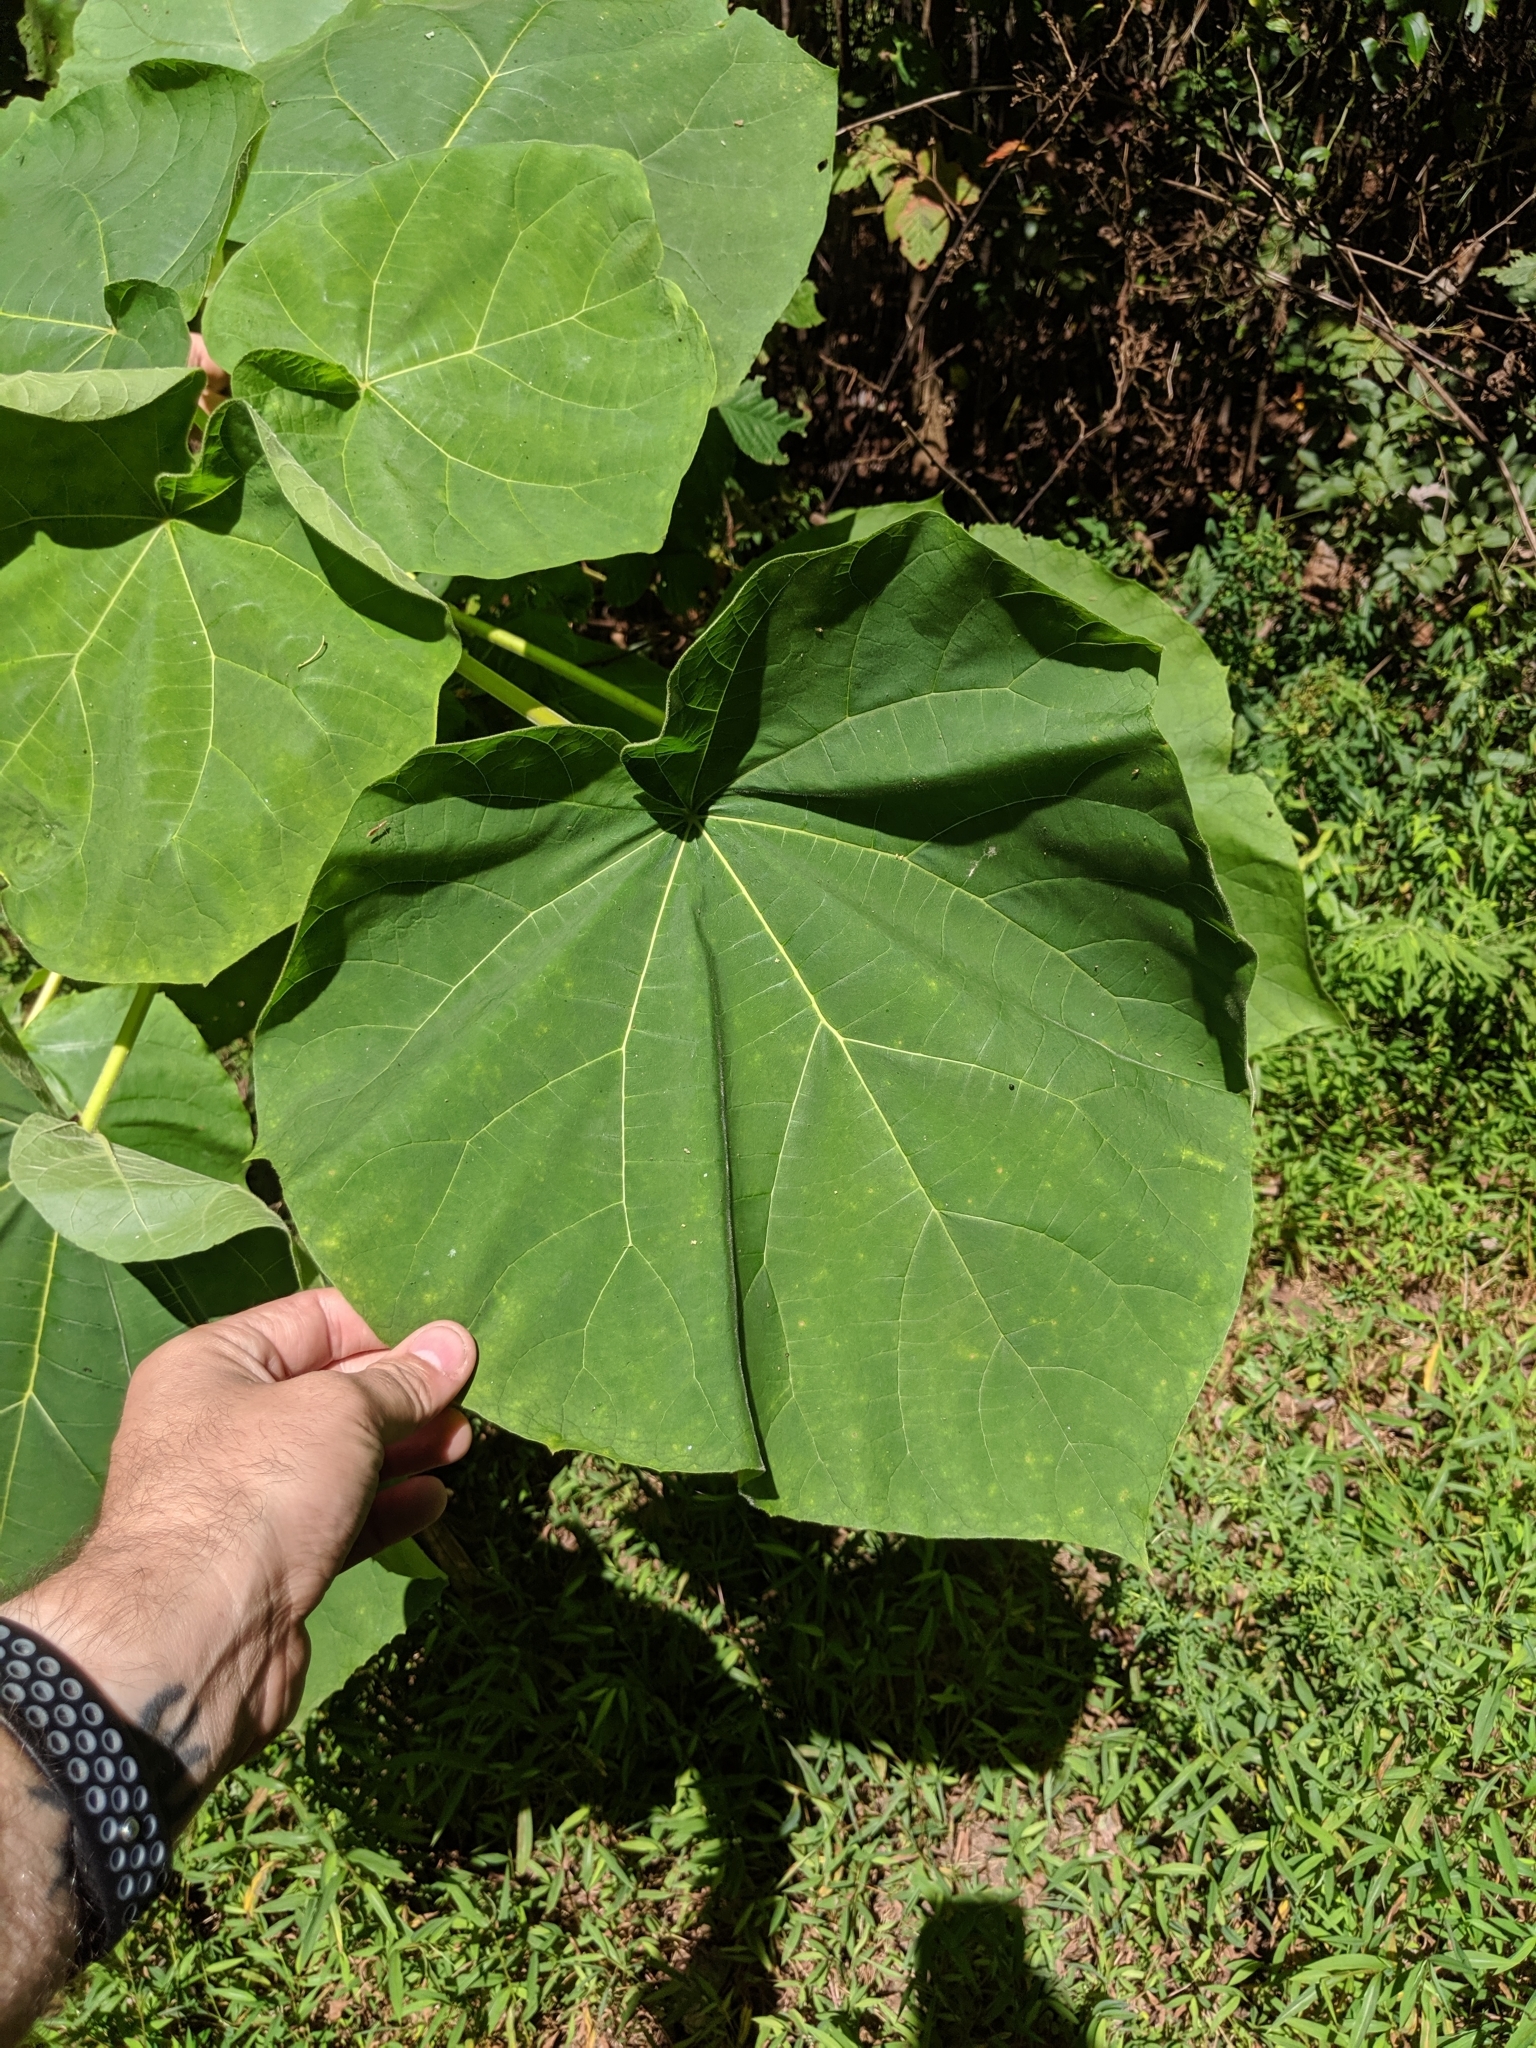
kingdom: Plantae
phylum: Tracheophyta
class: Magnoliopsida
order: Lamiales
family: Paulowniaceae
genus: Paulownia
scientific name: Paulownia tomentosa
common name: Foxglove-tree
